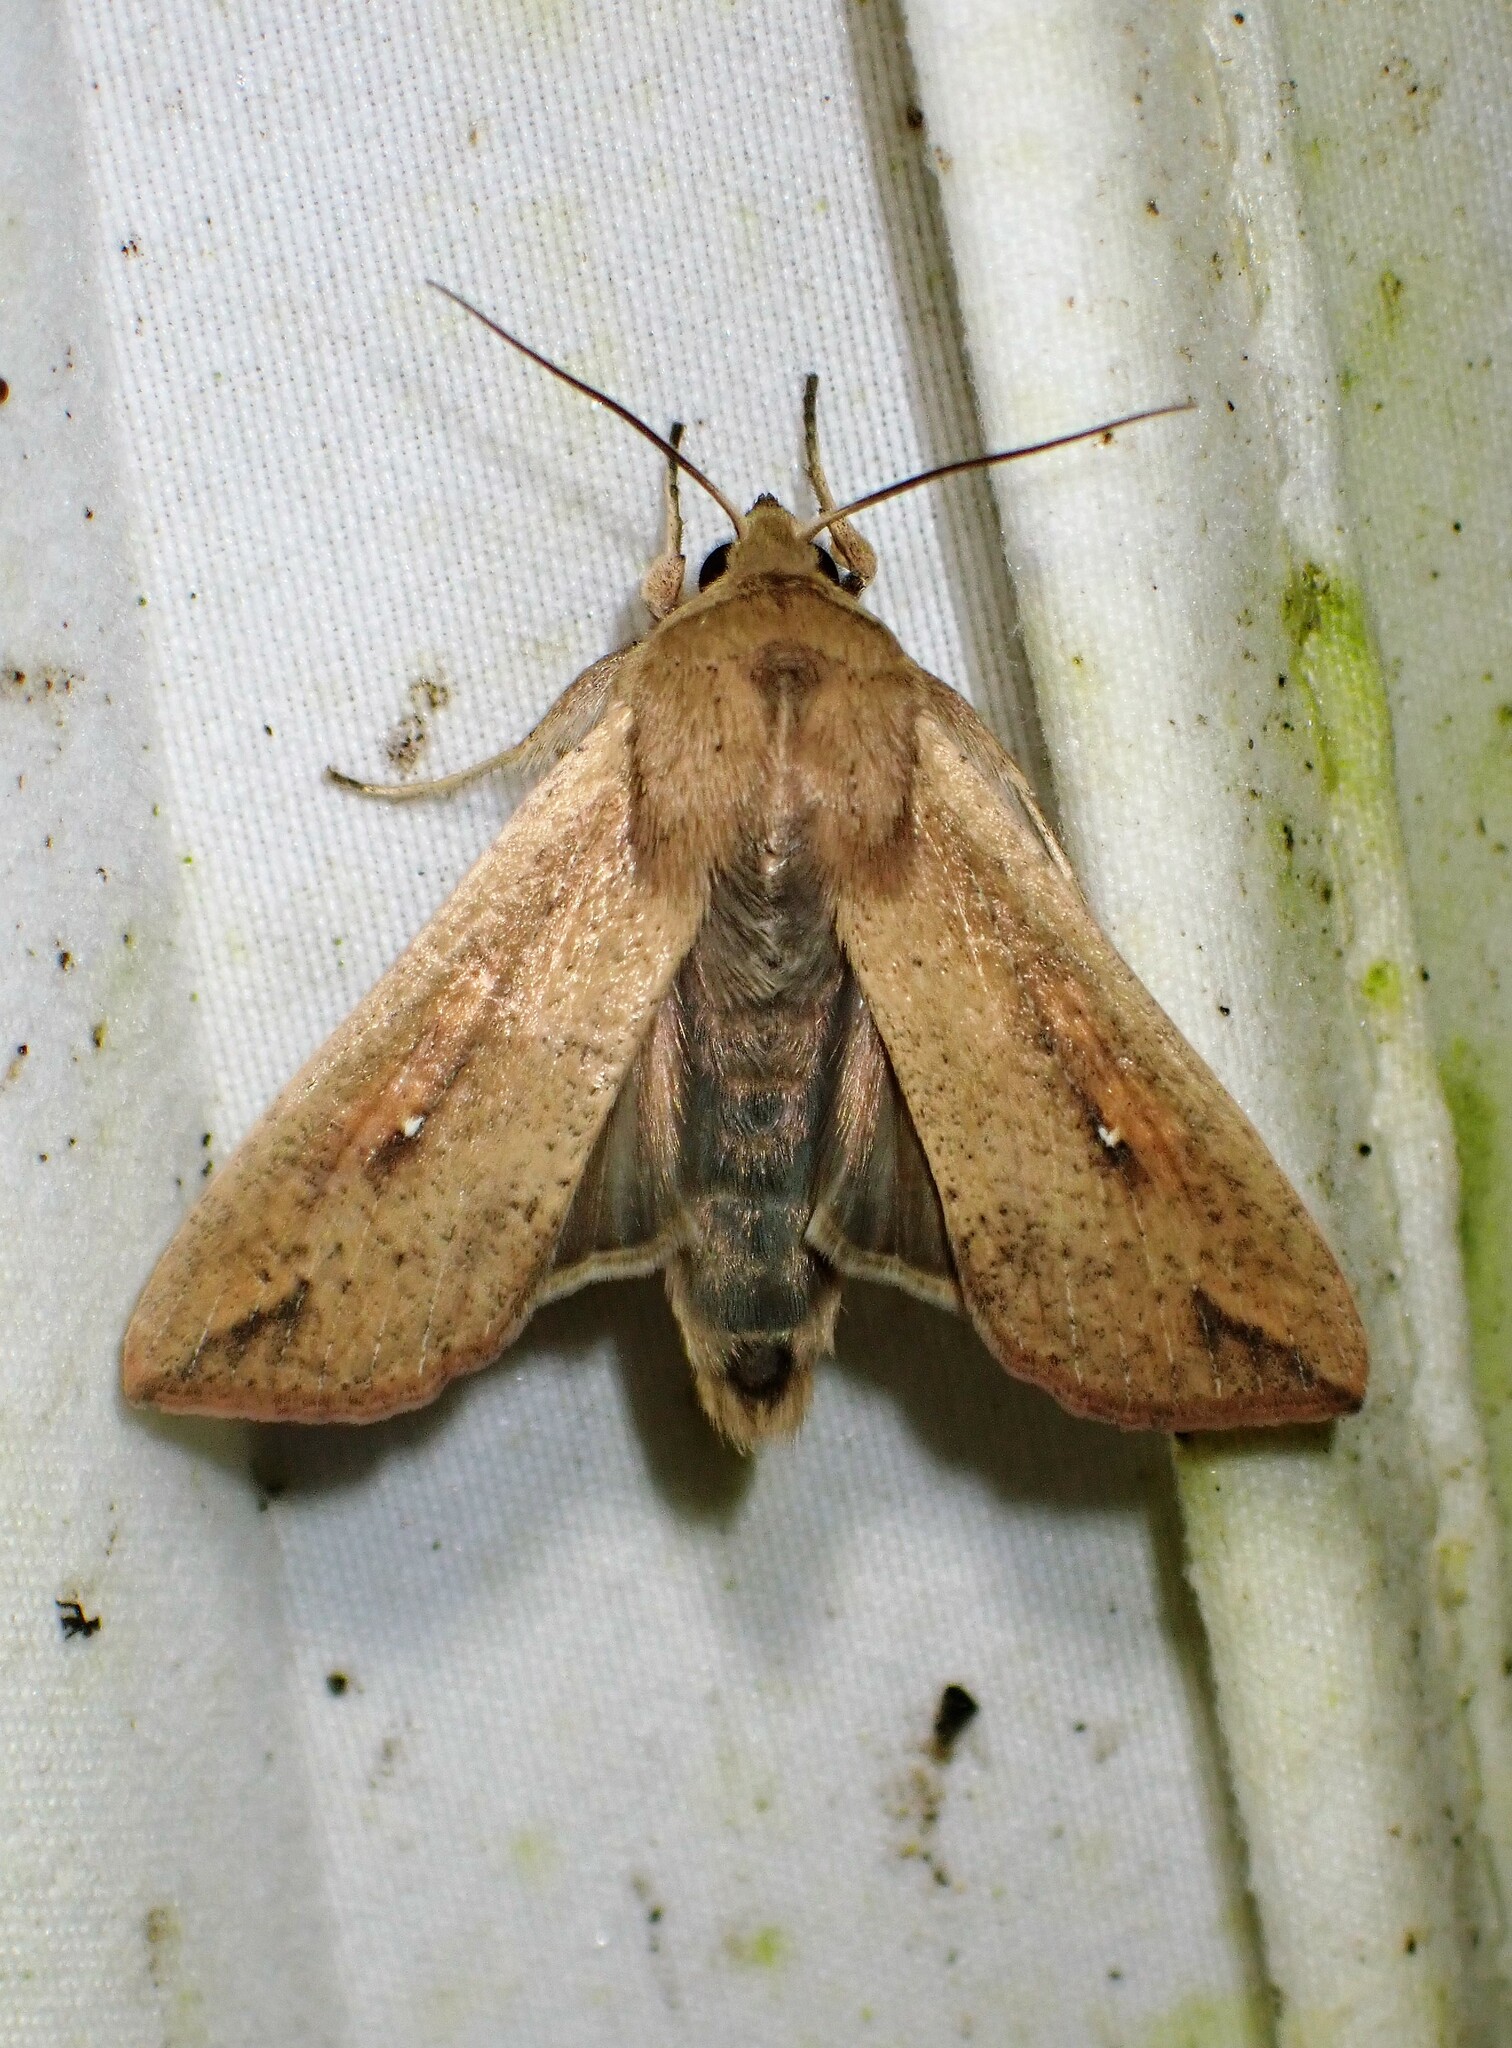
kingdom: Animalia
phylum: Arthropoda
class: Insecta
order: Lepidoptera
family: Noctuidae
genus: Mythimna
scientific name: Mythimna unipuncta
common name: White-speck
